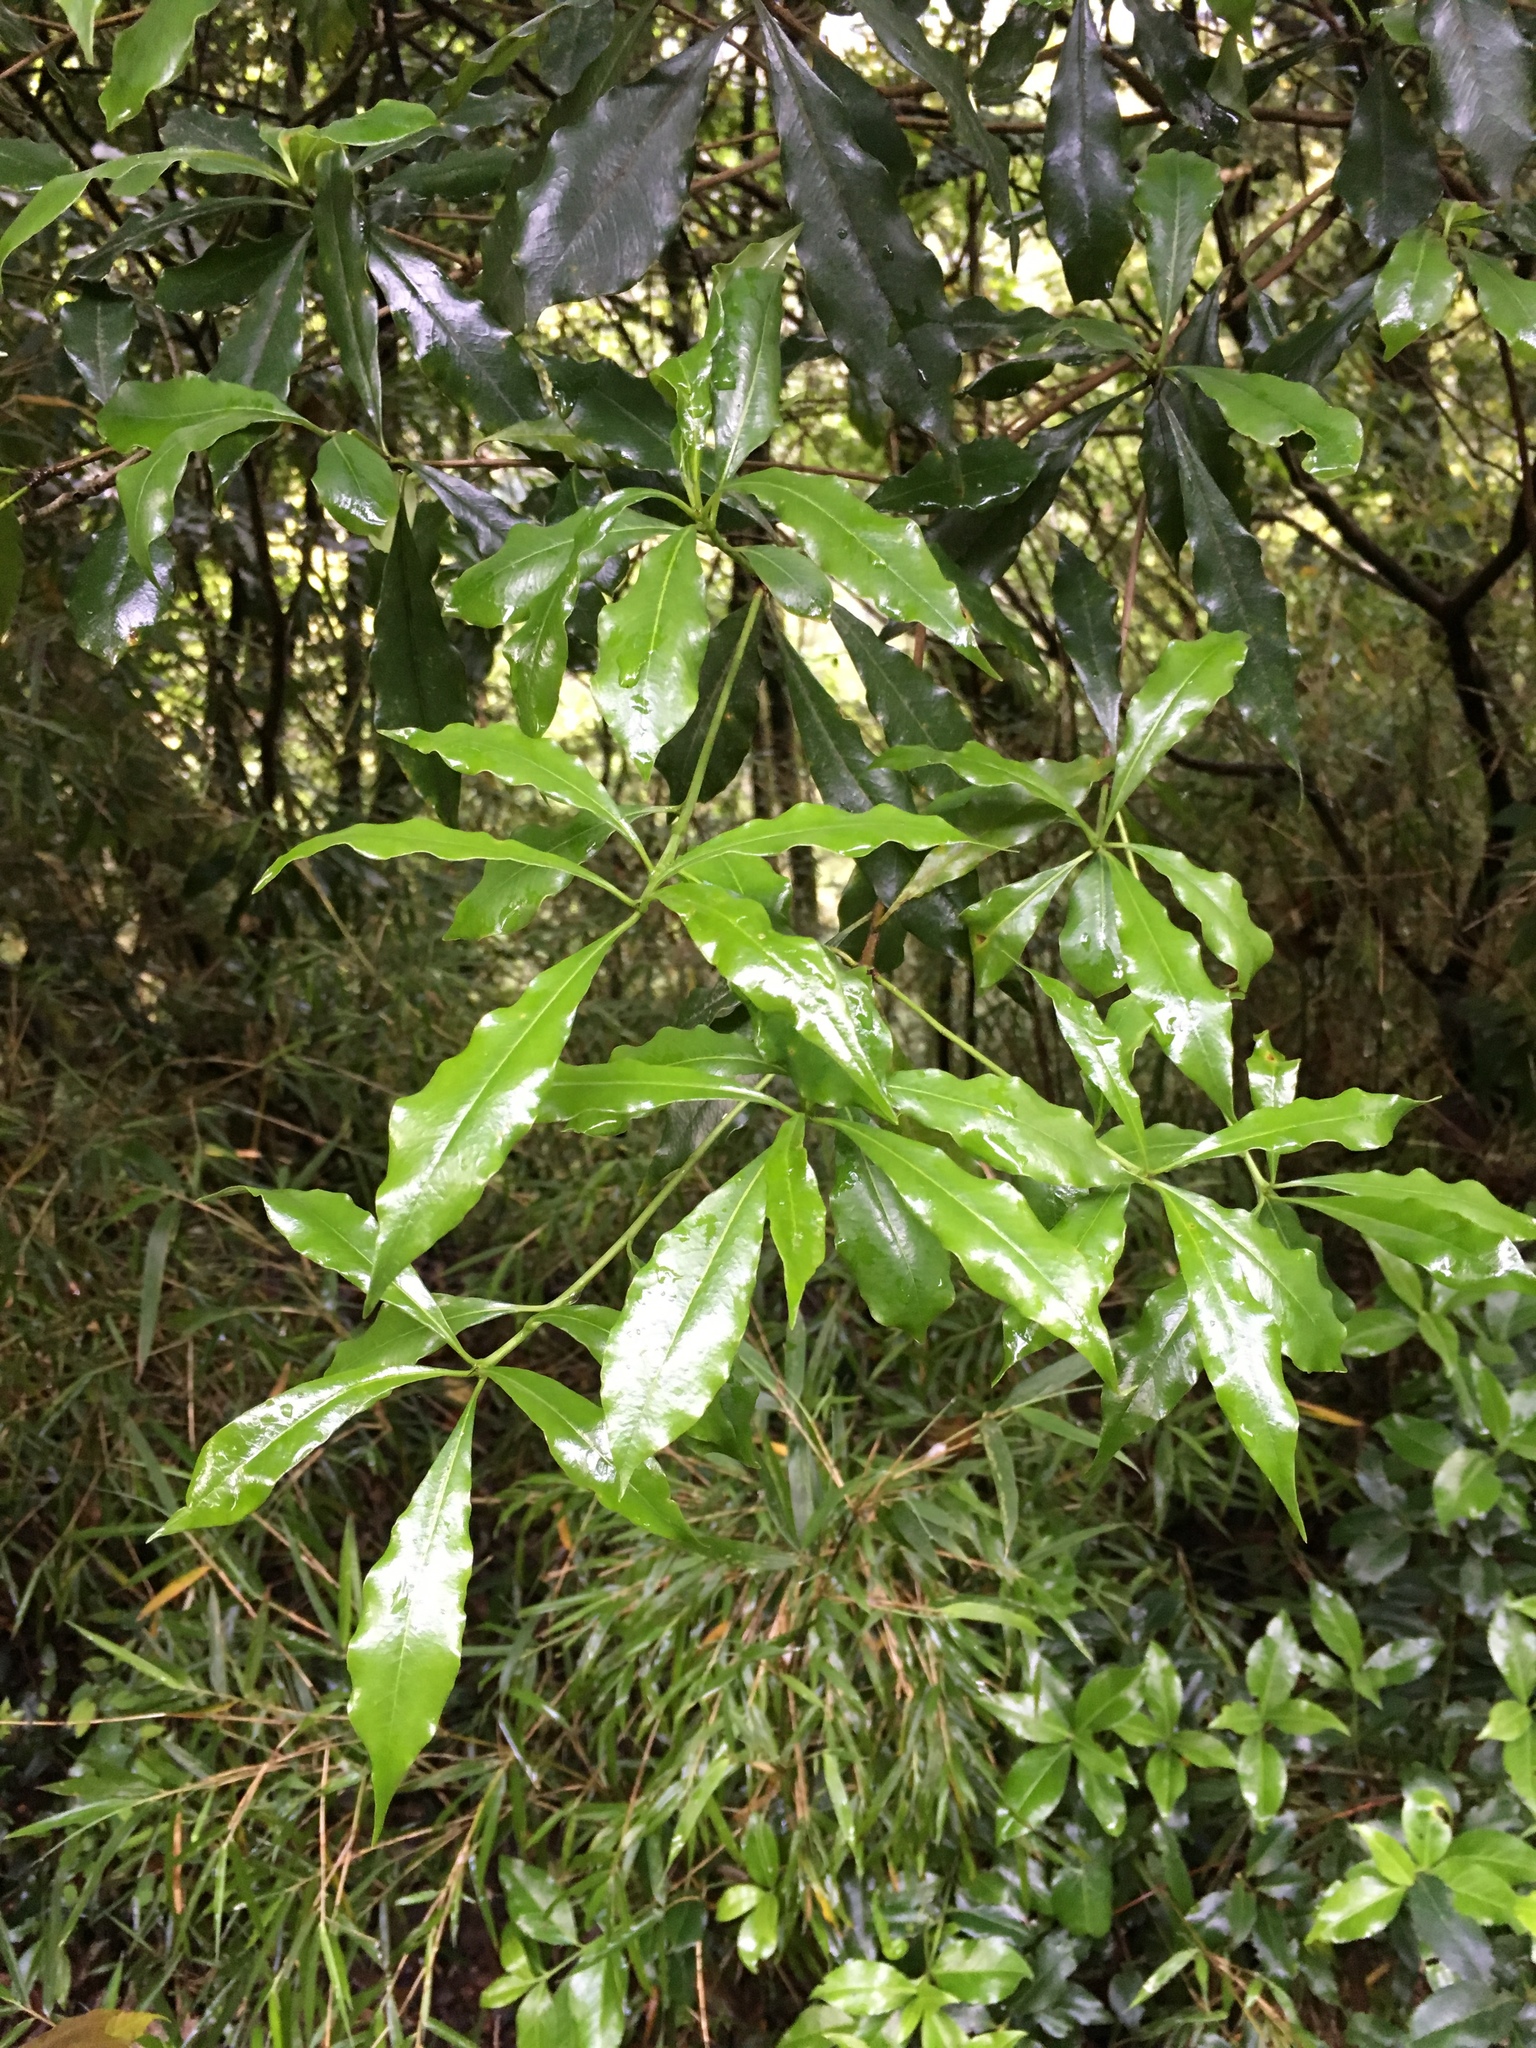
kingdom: Plantae
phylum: Tracheophyta
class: Magnoliopsida
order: Apiales
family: Pittosporaceae
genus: Pittosporum
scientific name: Pittosporum illicioides
